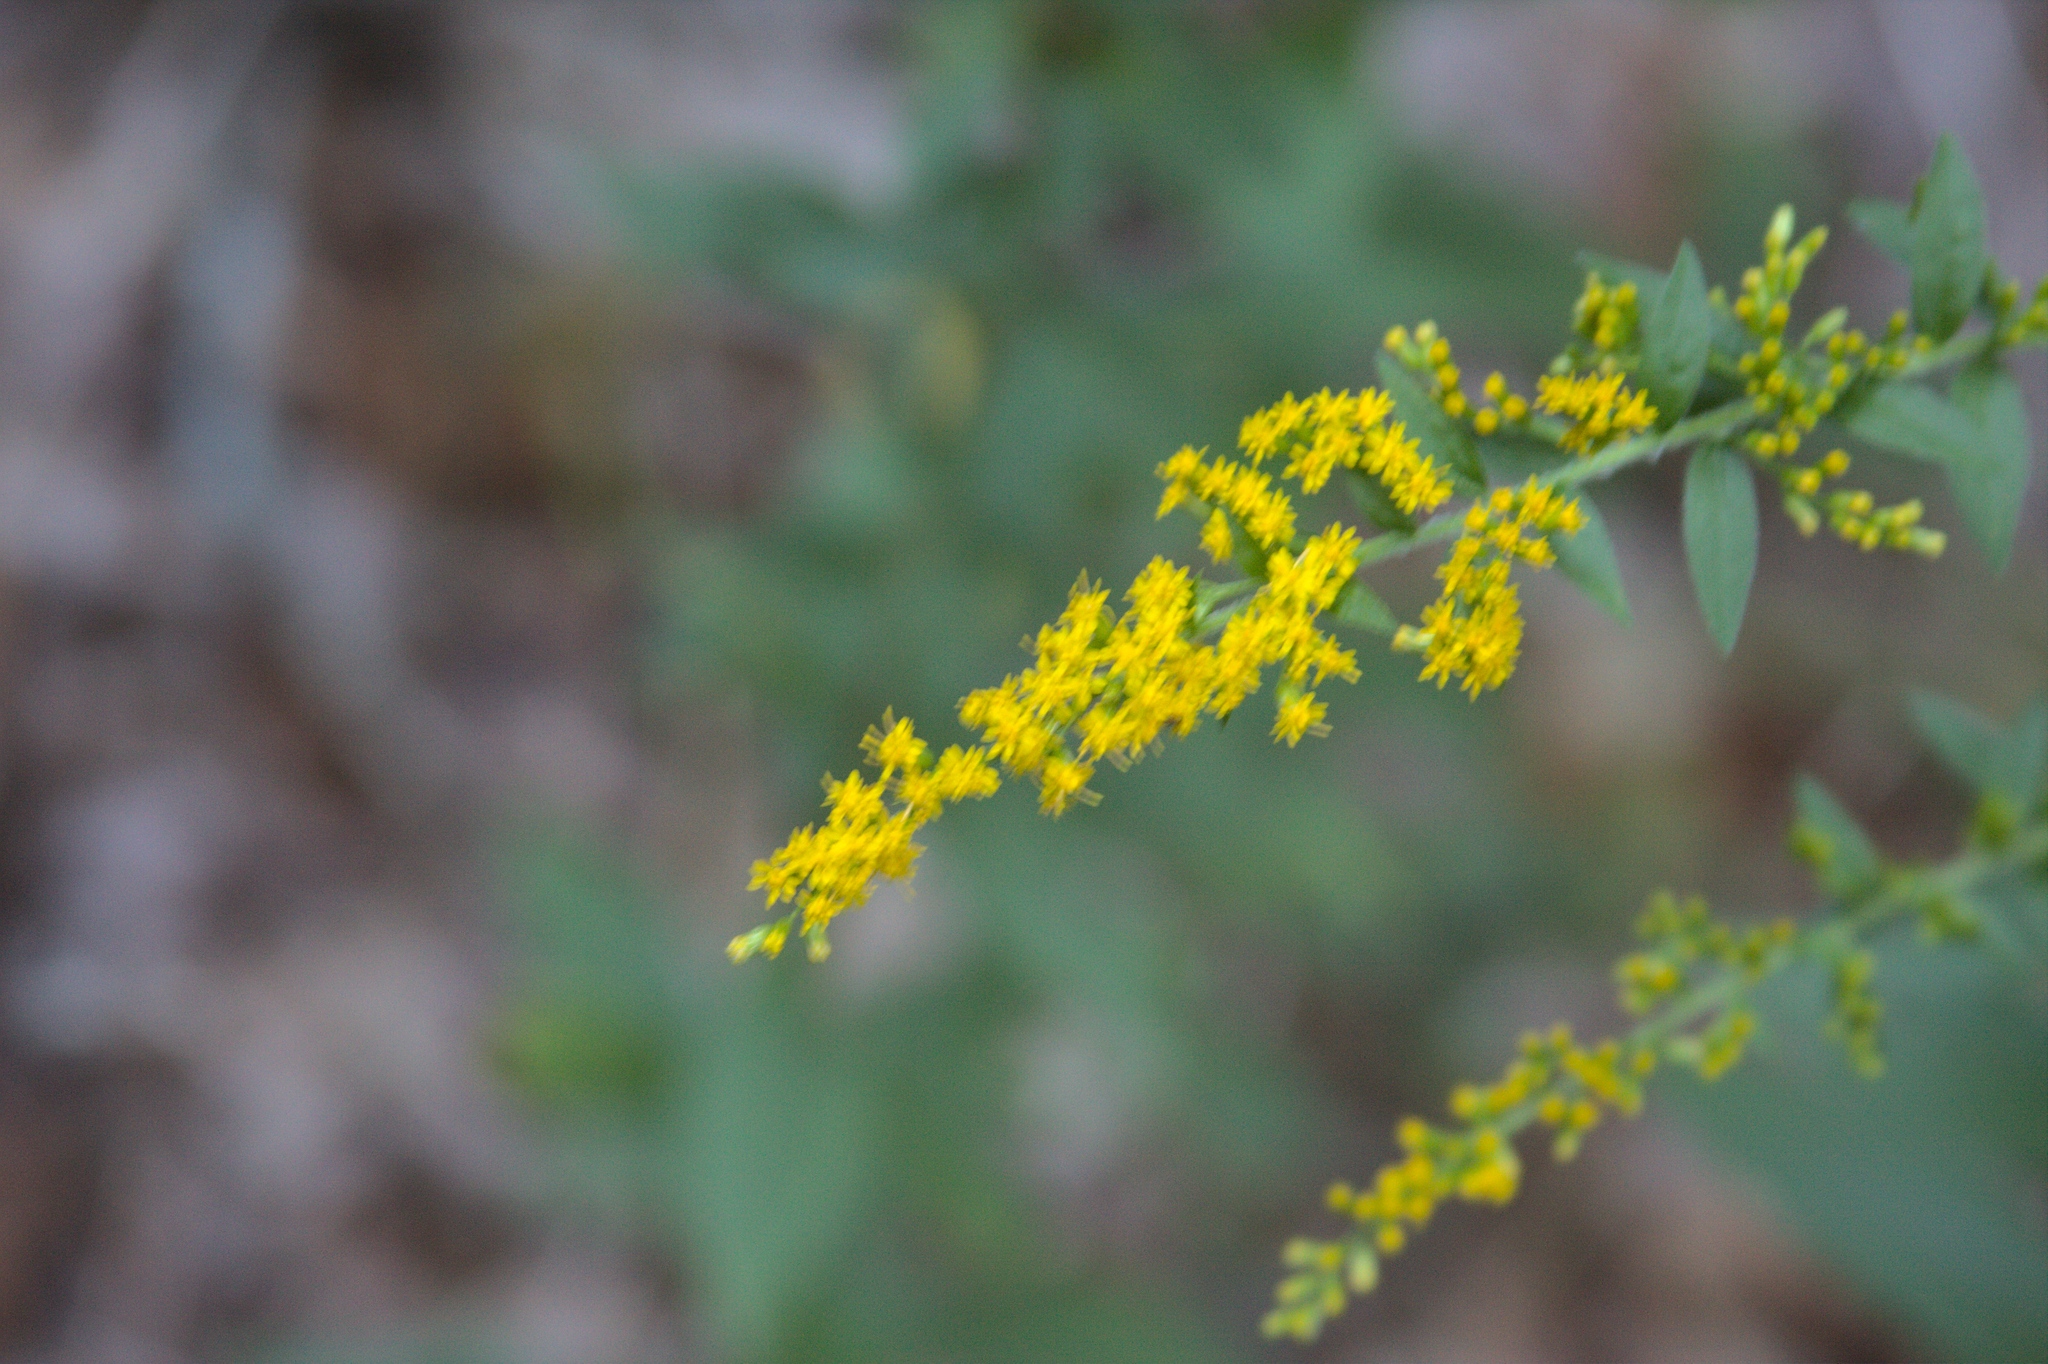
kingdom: Plantae
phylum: Tracheophyta
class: Magnoliopsida
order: Asterales
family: Asteraceae
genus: Solidago
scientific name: Solidago rugosa
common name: Rough-stemmed goldenrod
